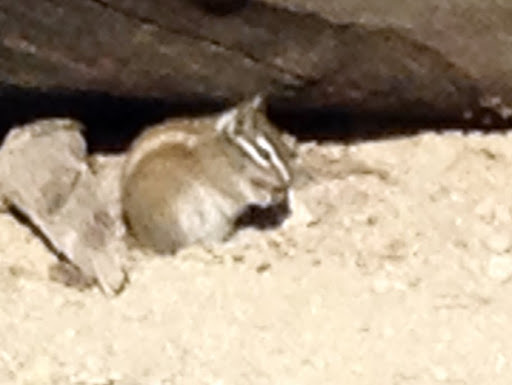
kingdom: Animalia
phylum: Chordata
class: Mammalia
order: Rodentia
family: Sciuridae
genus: Tamias
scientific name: Tamias merriami
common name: Merriam's chipmunk
